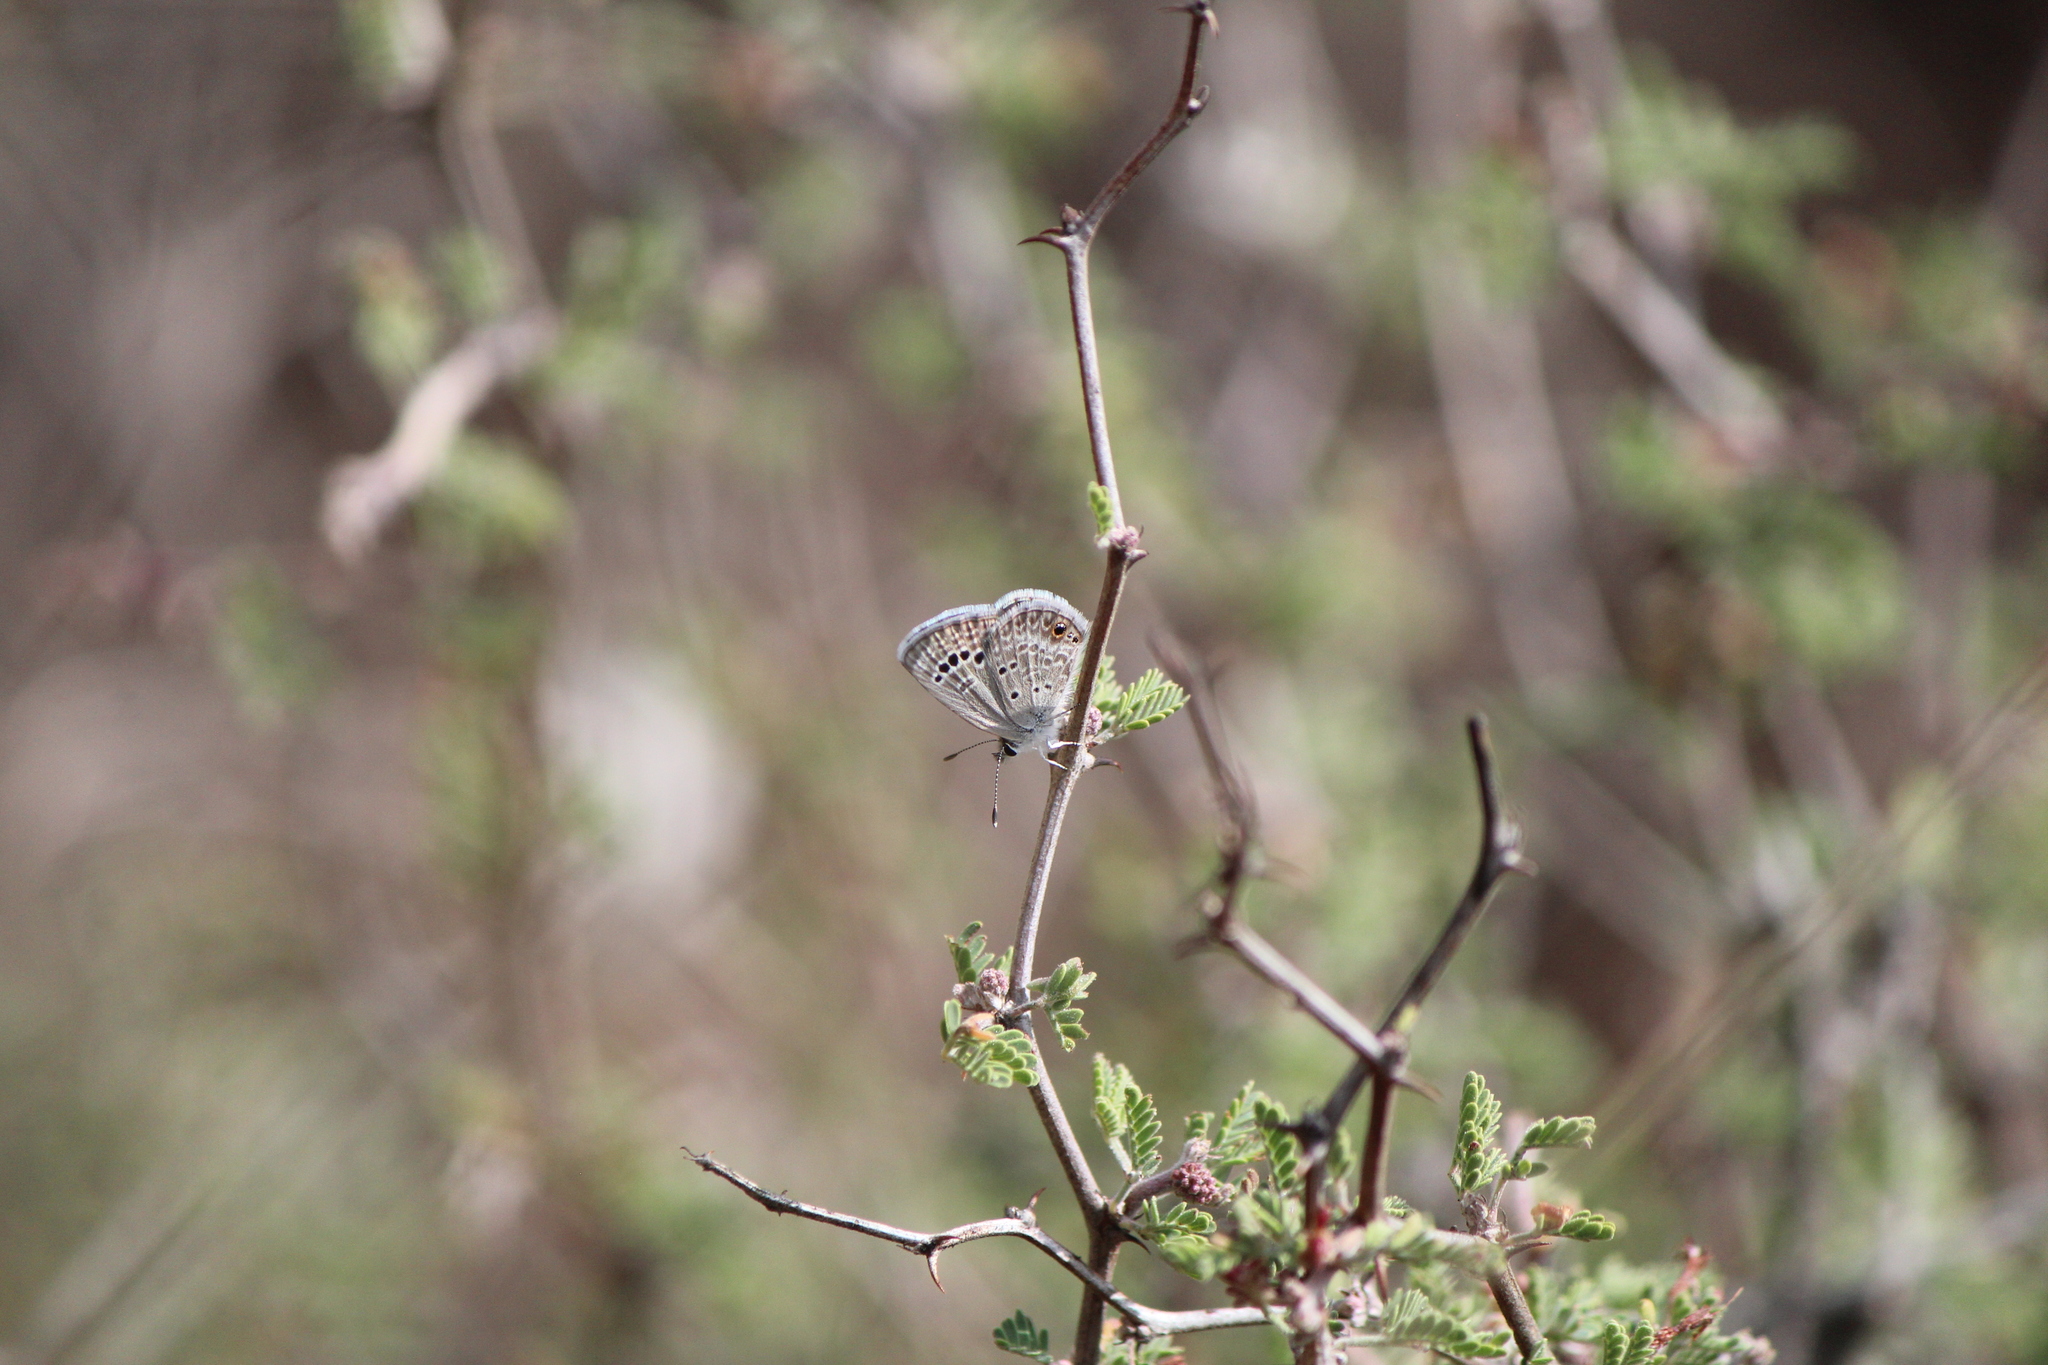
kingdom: Animalia
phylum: Arthropoda
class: Insecta
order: Lepidoptera
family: Lycaenidae
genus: Echinargus
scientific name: Echinargus isola
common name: Reakirt's blue
